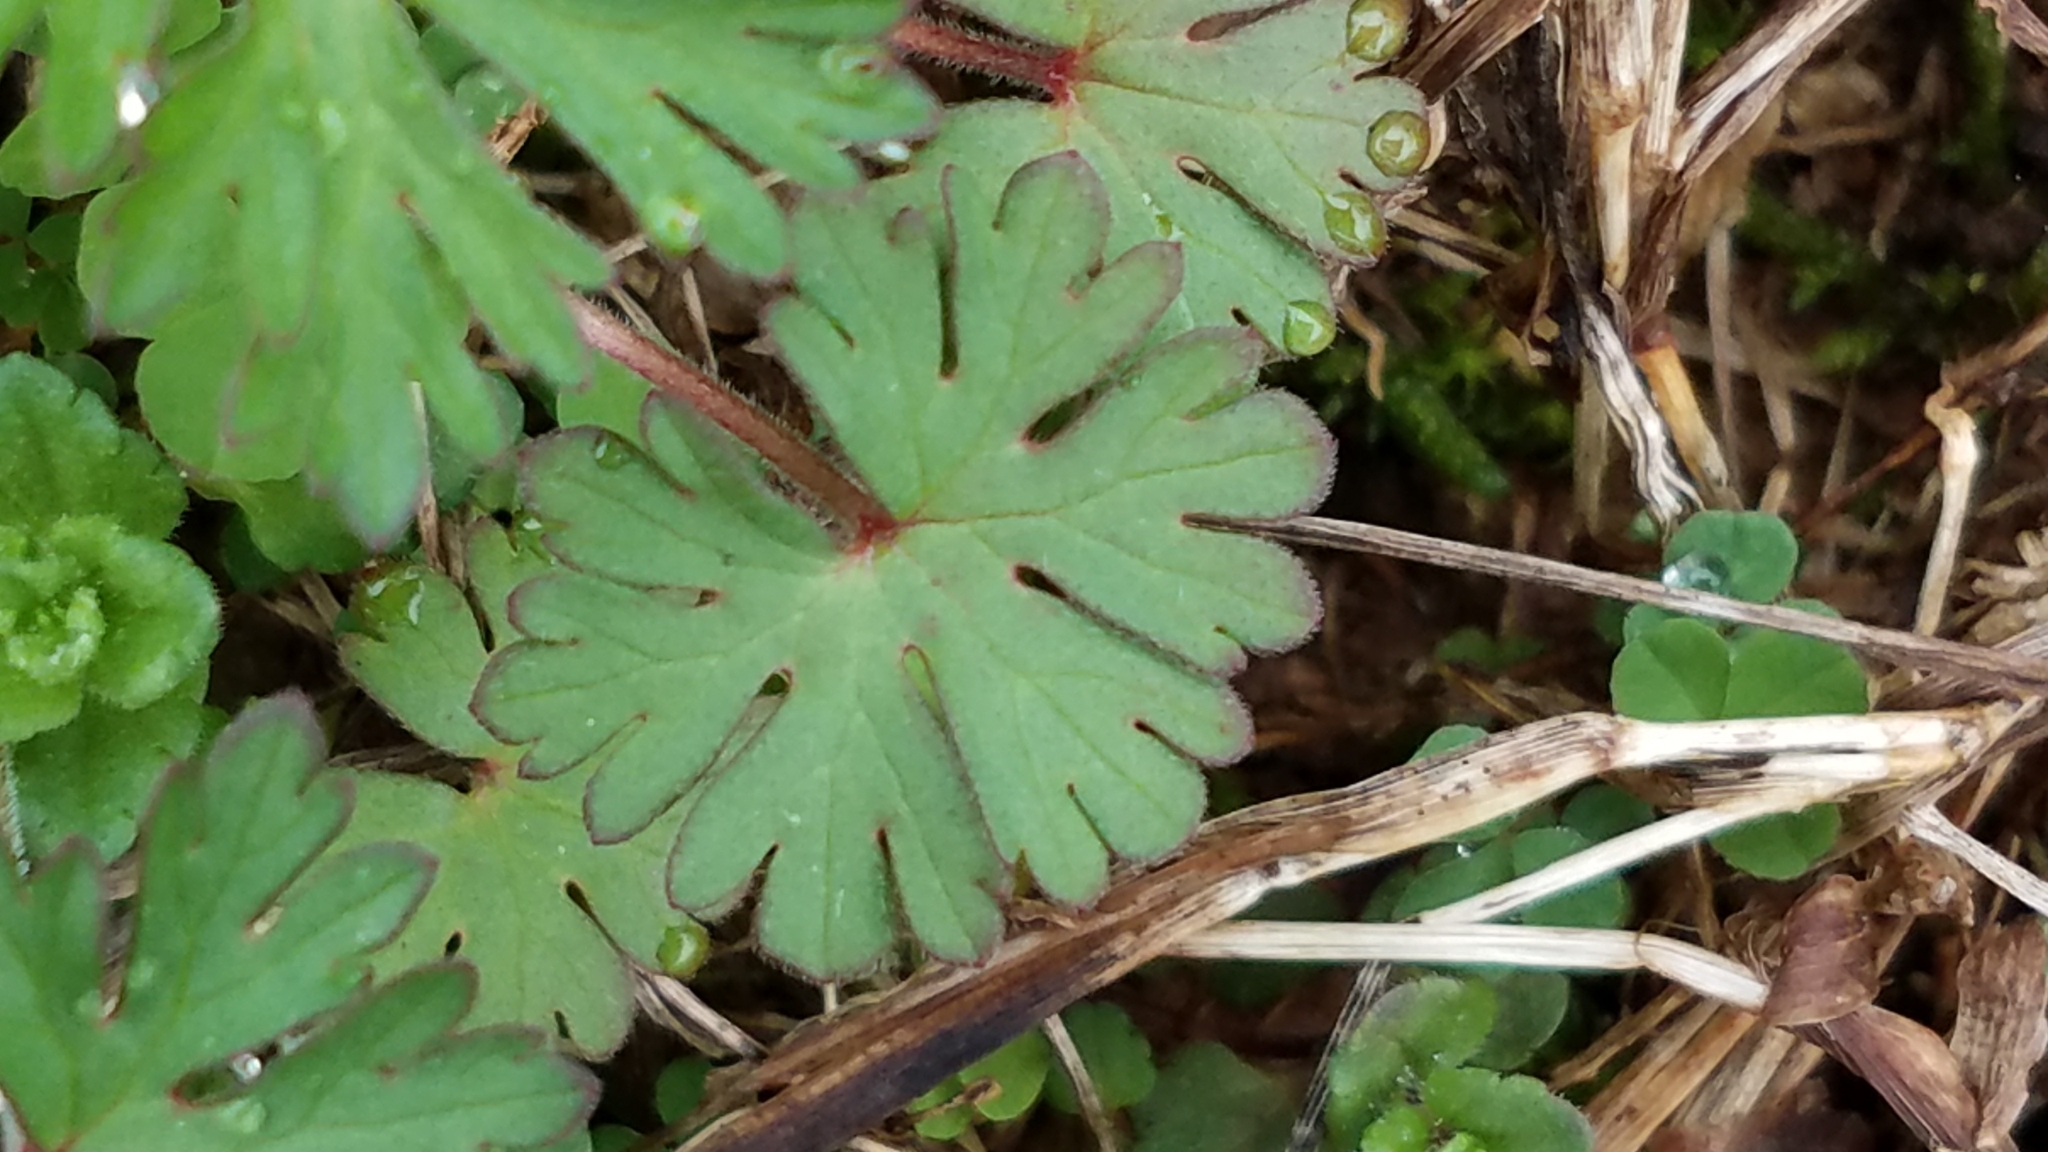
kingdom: Plantae
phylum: Tracheophyta
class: Magnoliopsida
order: Geraniales
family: Geraniaceae
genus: Geranium
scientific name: Geranium carolinianum
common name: Carolina crane's-bill
